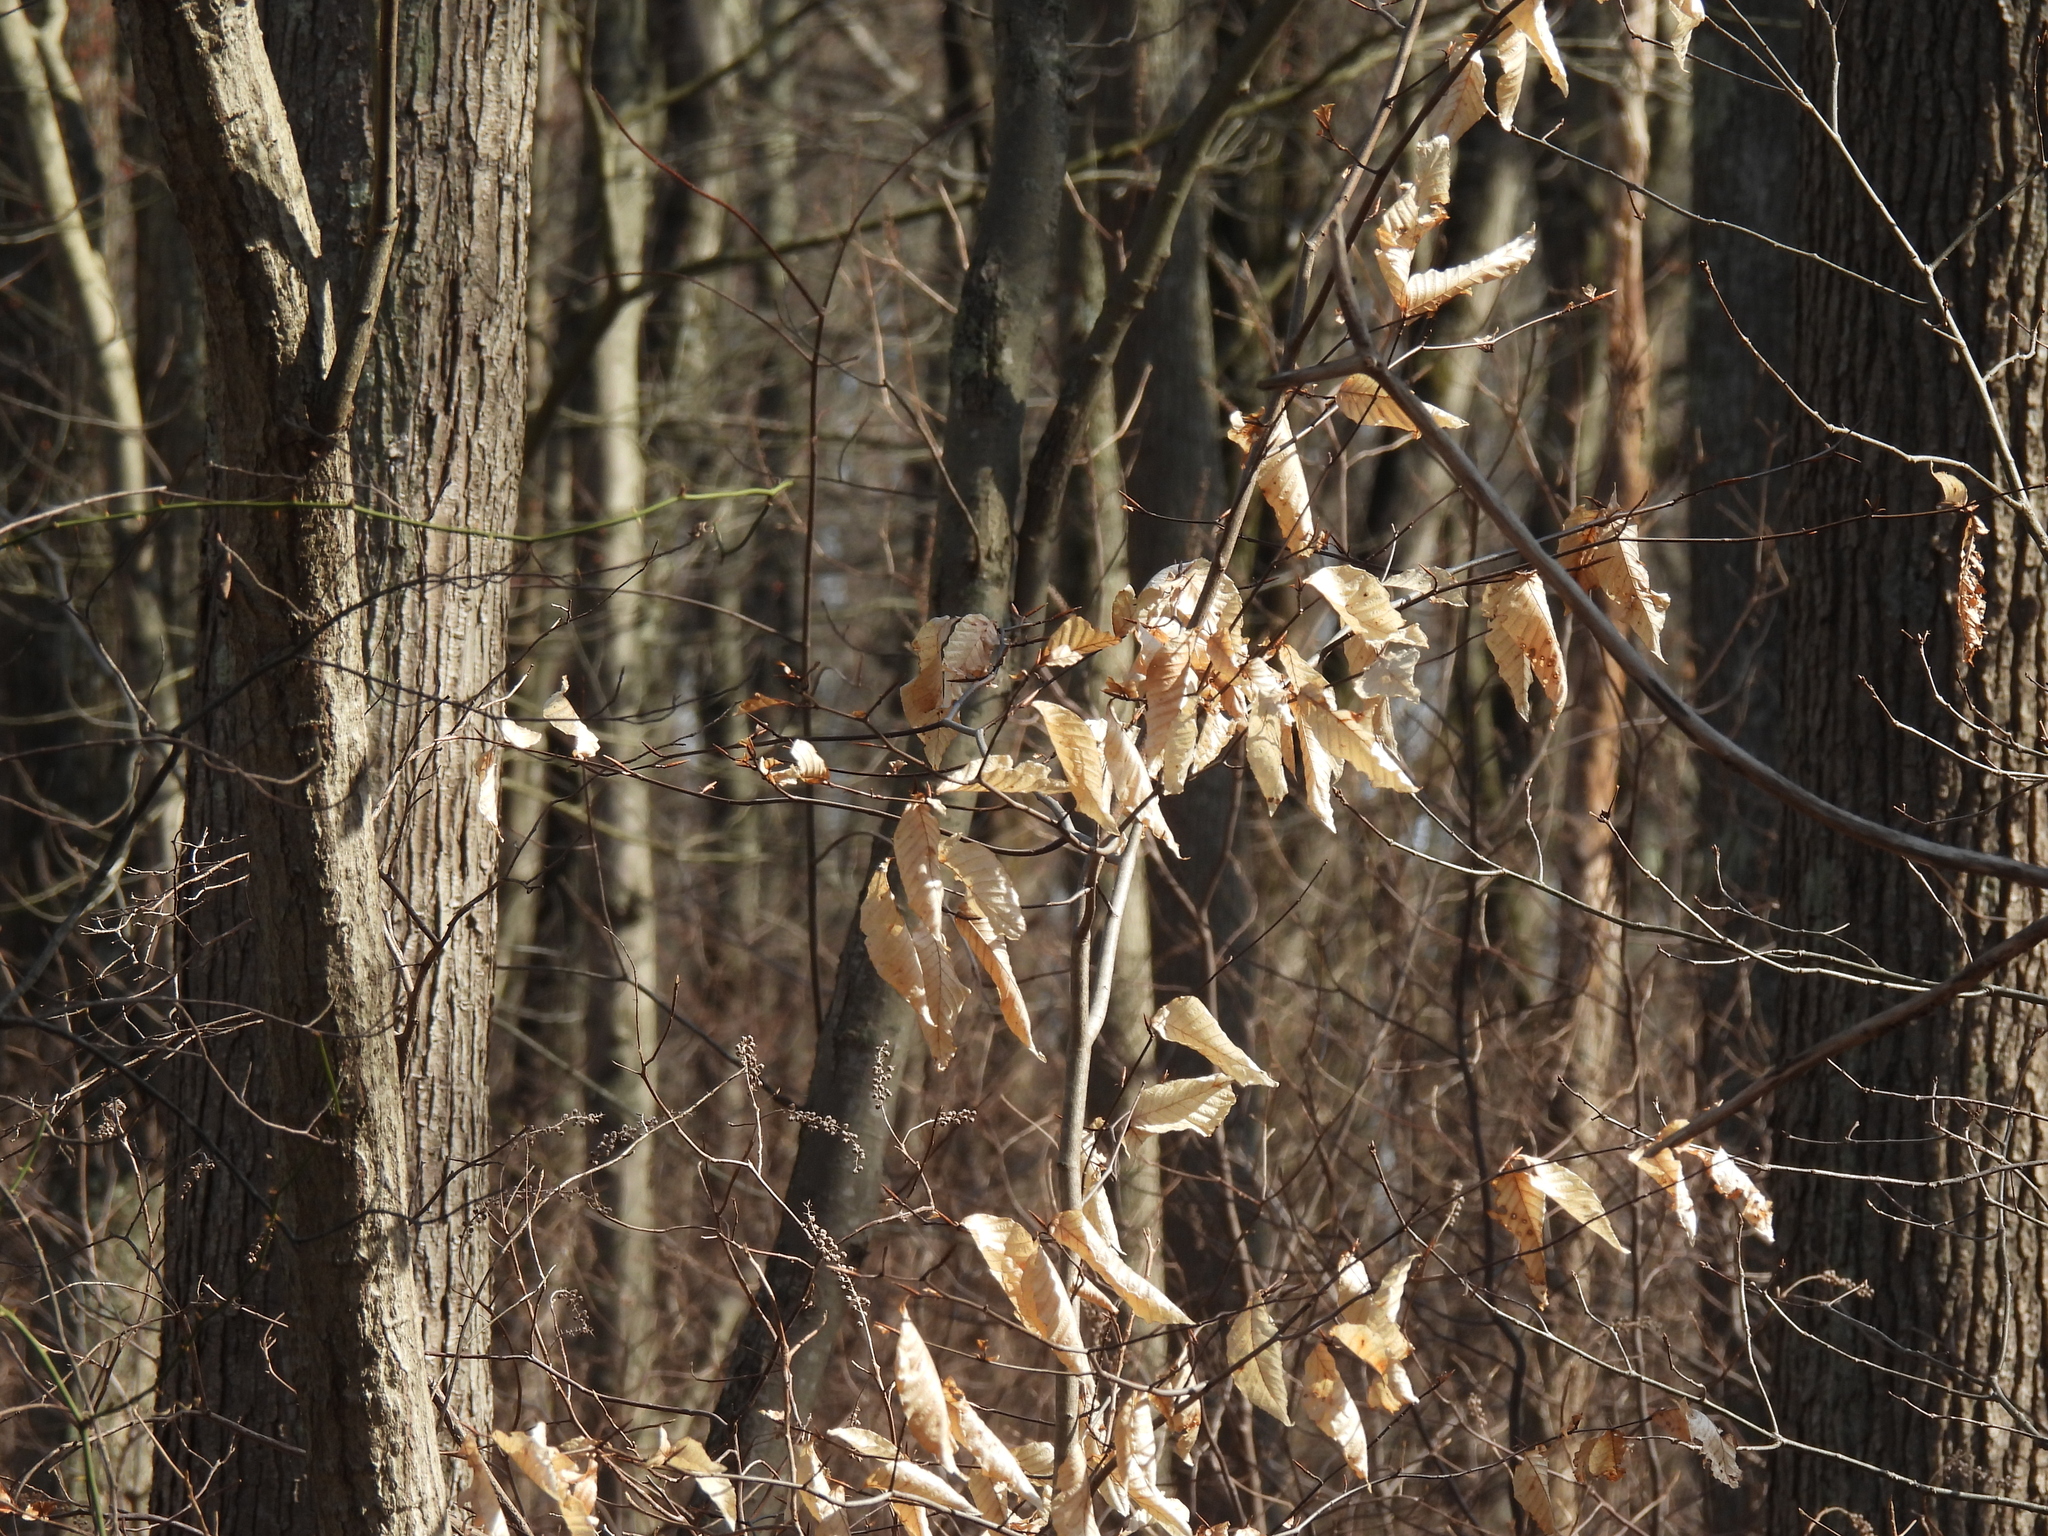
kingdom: Plantae
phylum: Tracheophyta
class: Magnoliopsida
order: Fagales
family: Fagaceae
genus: Fagus
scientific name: Fagus grandifolia
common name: American beech
